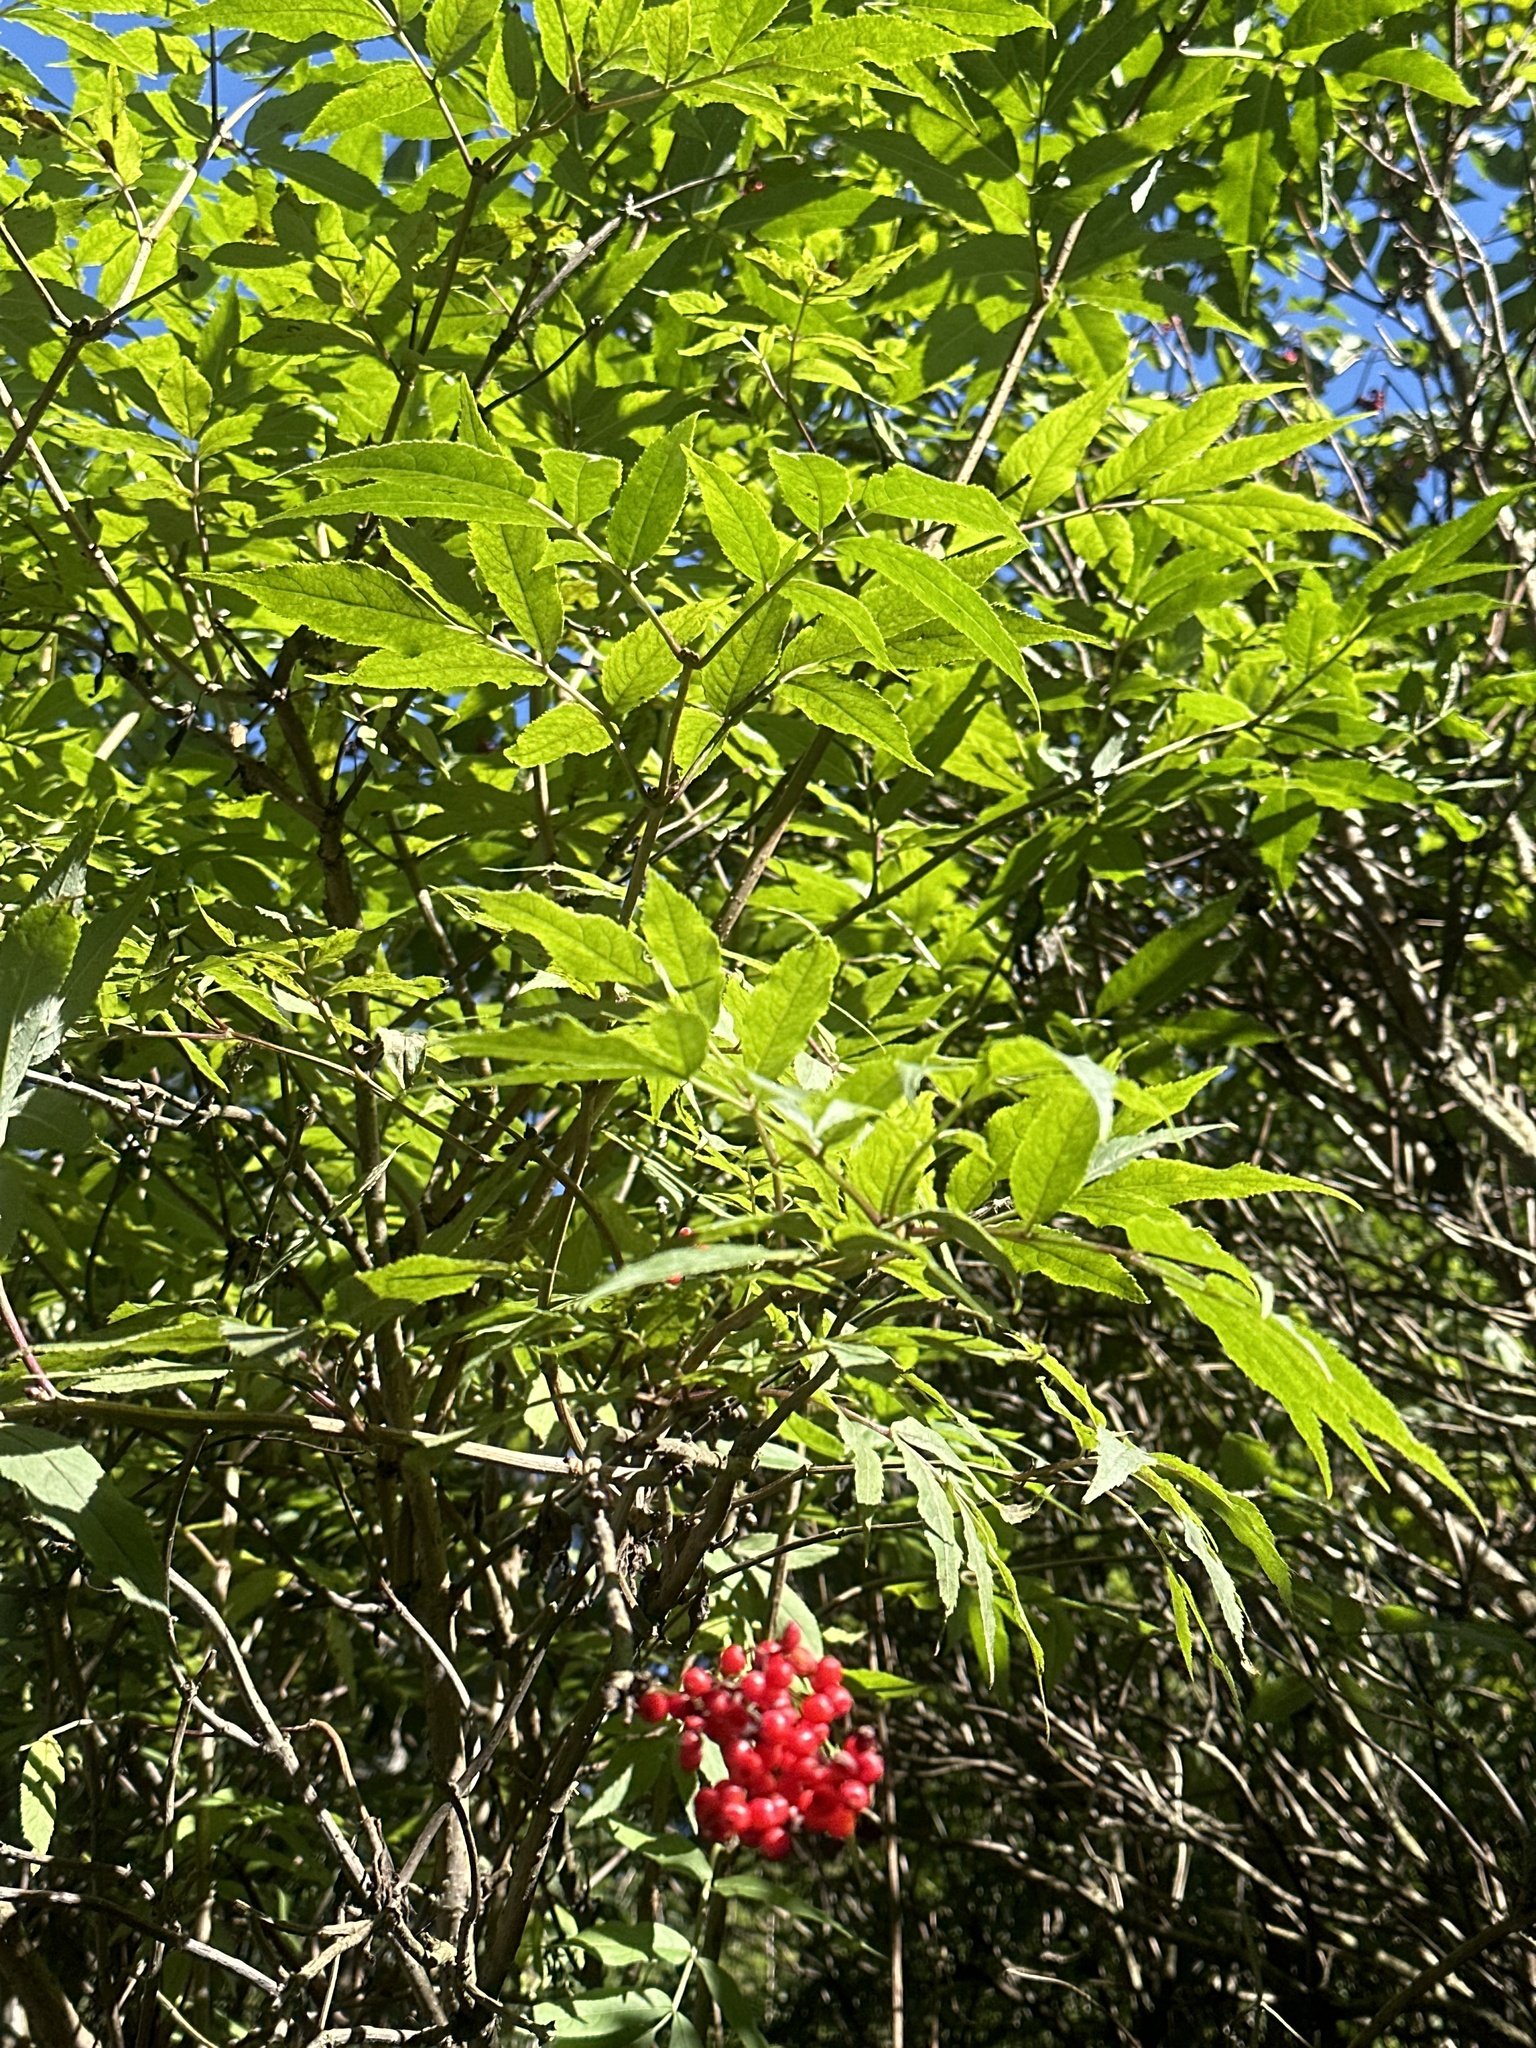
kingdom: Plantae
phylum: Tracheophyta
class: Magnoliopsida
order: Dipsacales
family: Viburnaceae
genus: Sambucus
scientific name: Sambucus racemosa
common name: Red-berried elder
